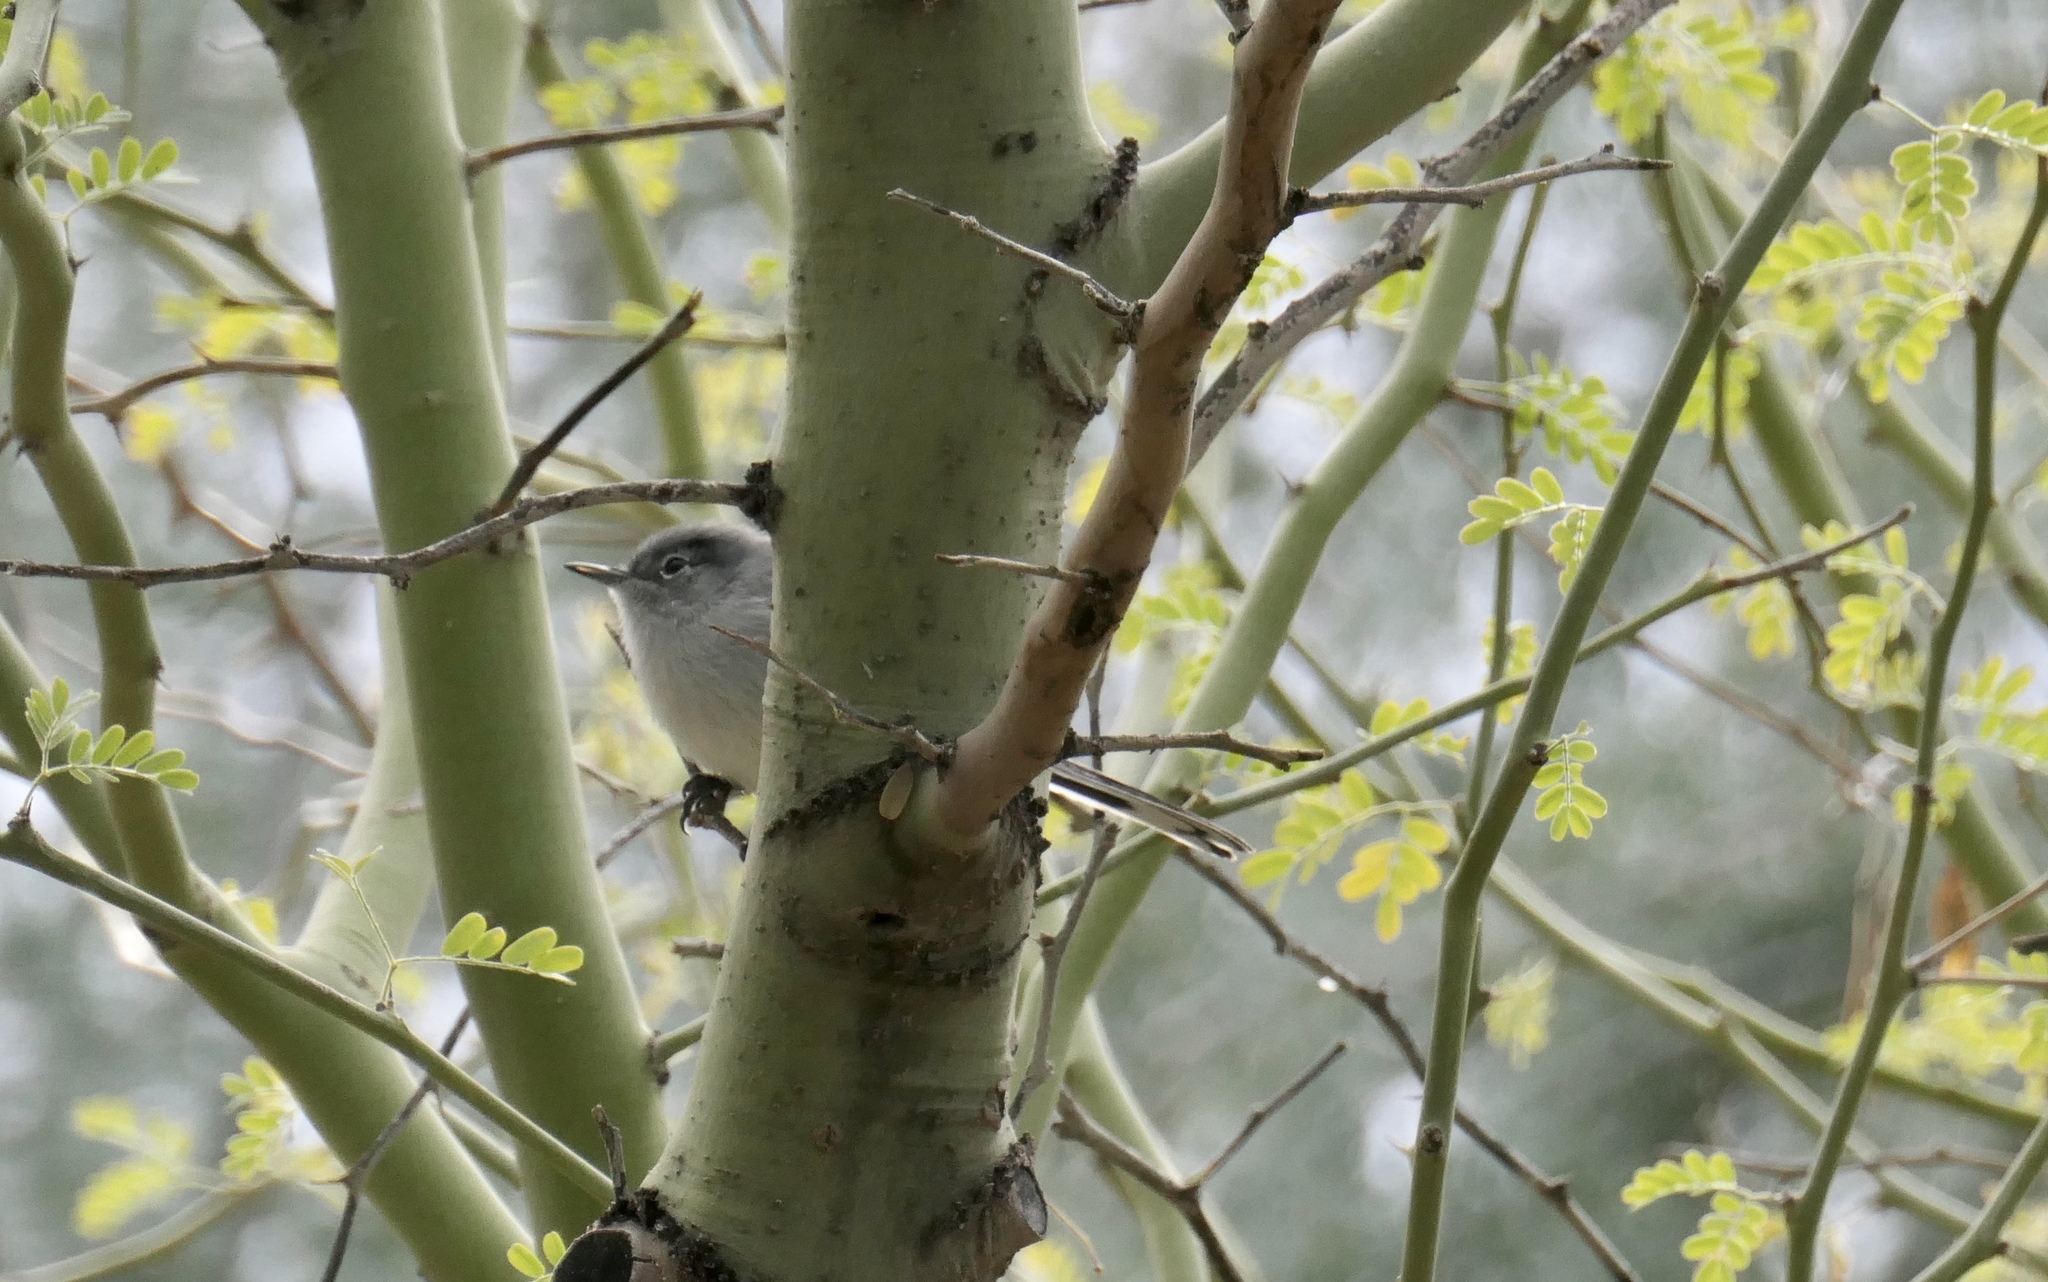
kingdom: Animalia
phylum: Chordata
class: Aves
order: Passeriformes
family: Polioptilidae
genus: Polioptila
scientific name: Polioptila melanura
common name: Black-tailed gnatcatcher
